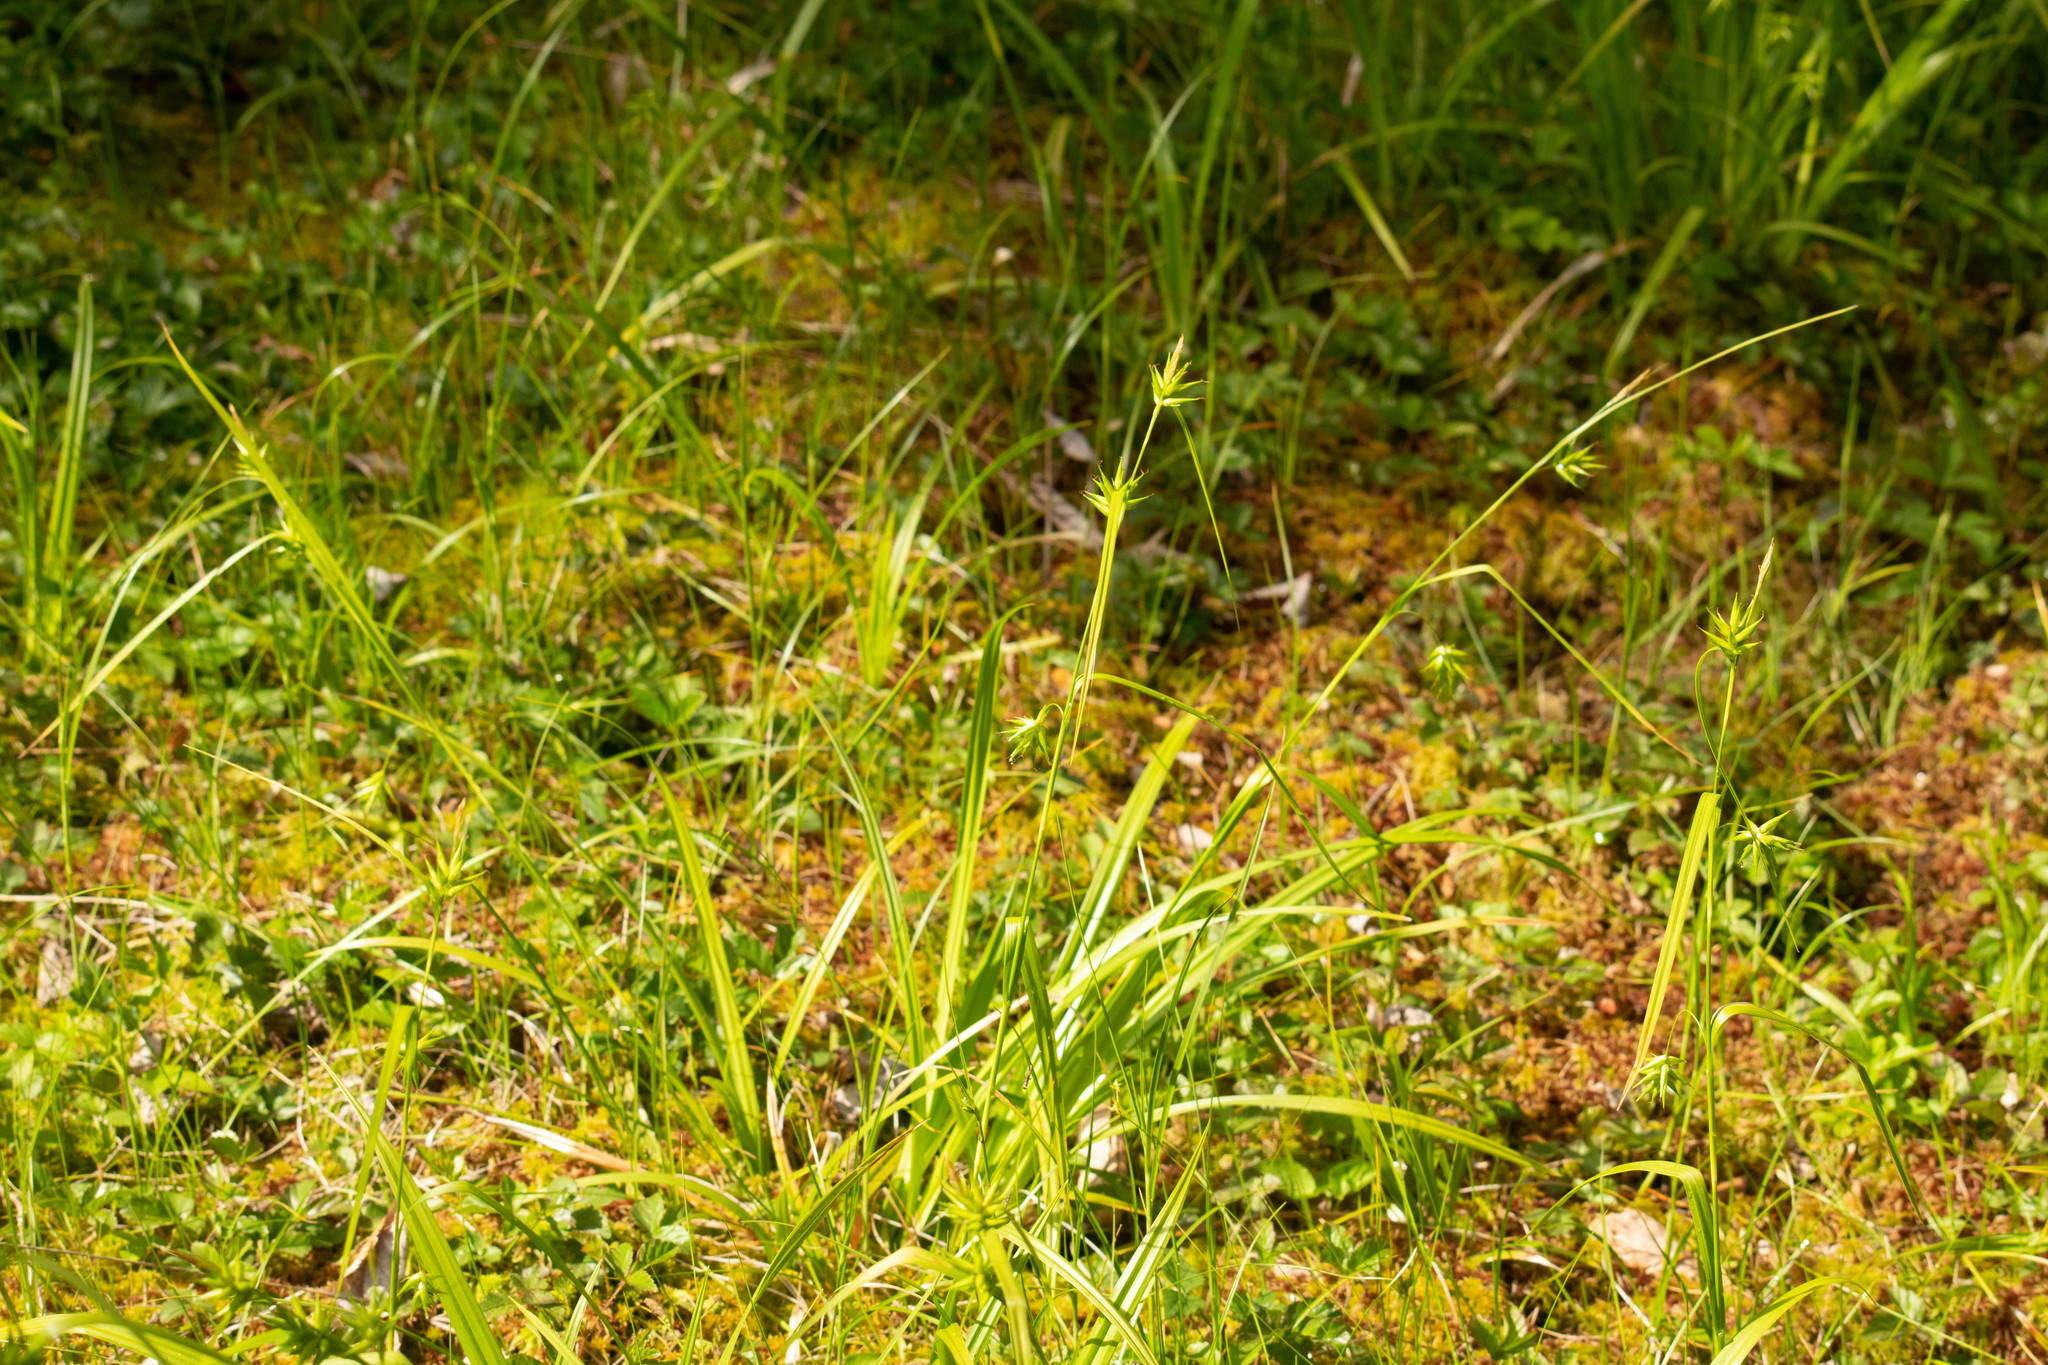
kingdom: Plantae
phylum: Tracheophyta
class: Liliopsida
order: Poales
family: Cyperaceae
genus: Carex
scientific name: Carex folliculata
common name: Northern long sedge
